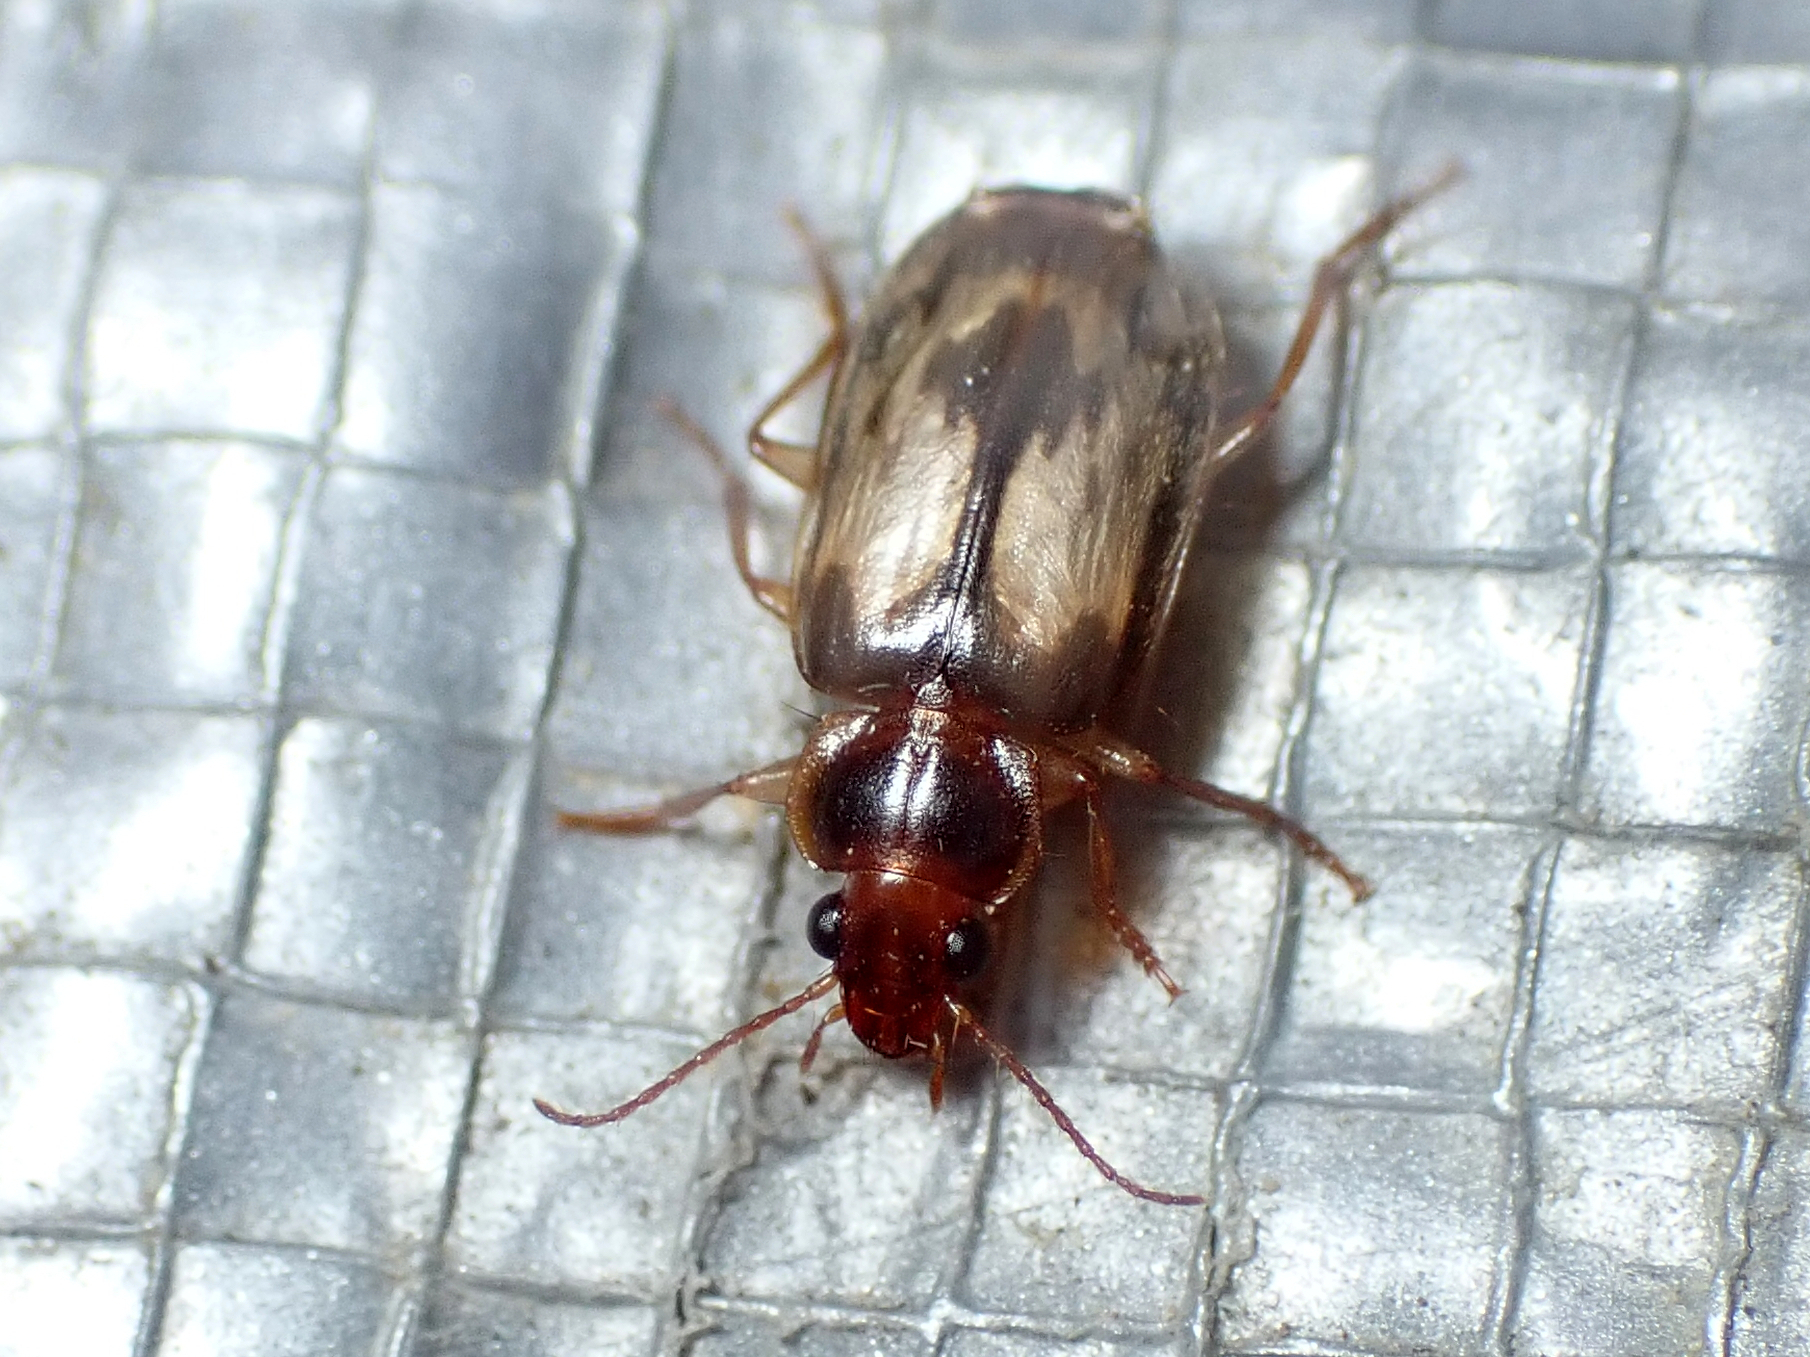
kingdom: Animalia
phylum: Arthropoda
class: Insecta
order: Coleoptera
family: Carabidae
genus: Philophlaeus
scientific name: Philophlaeus luculentus
